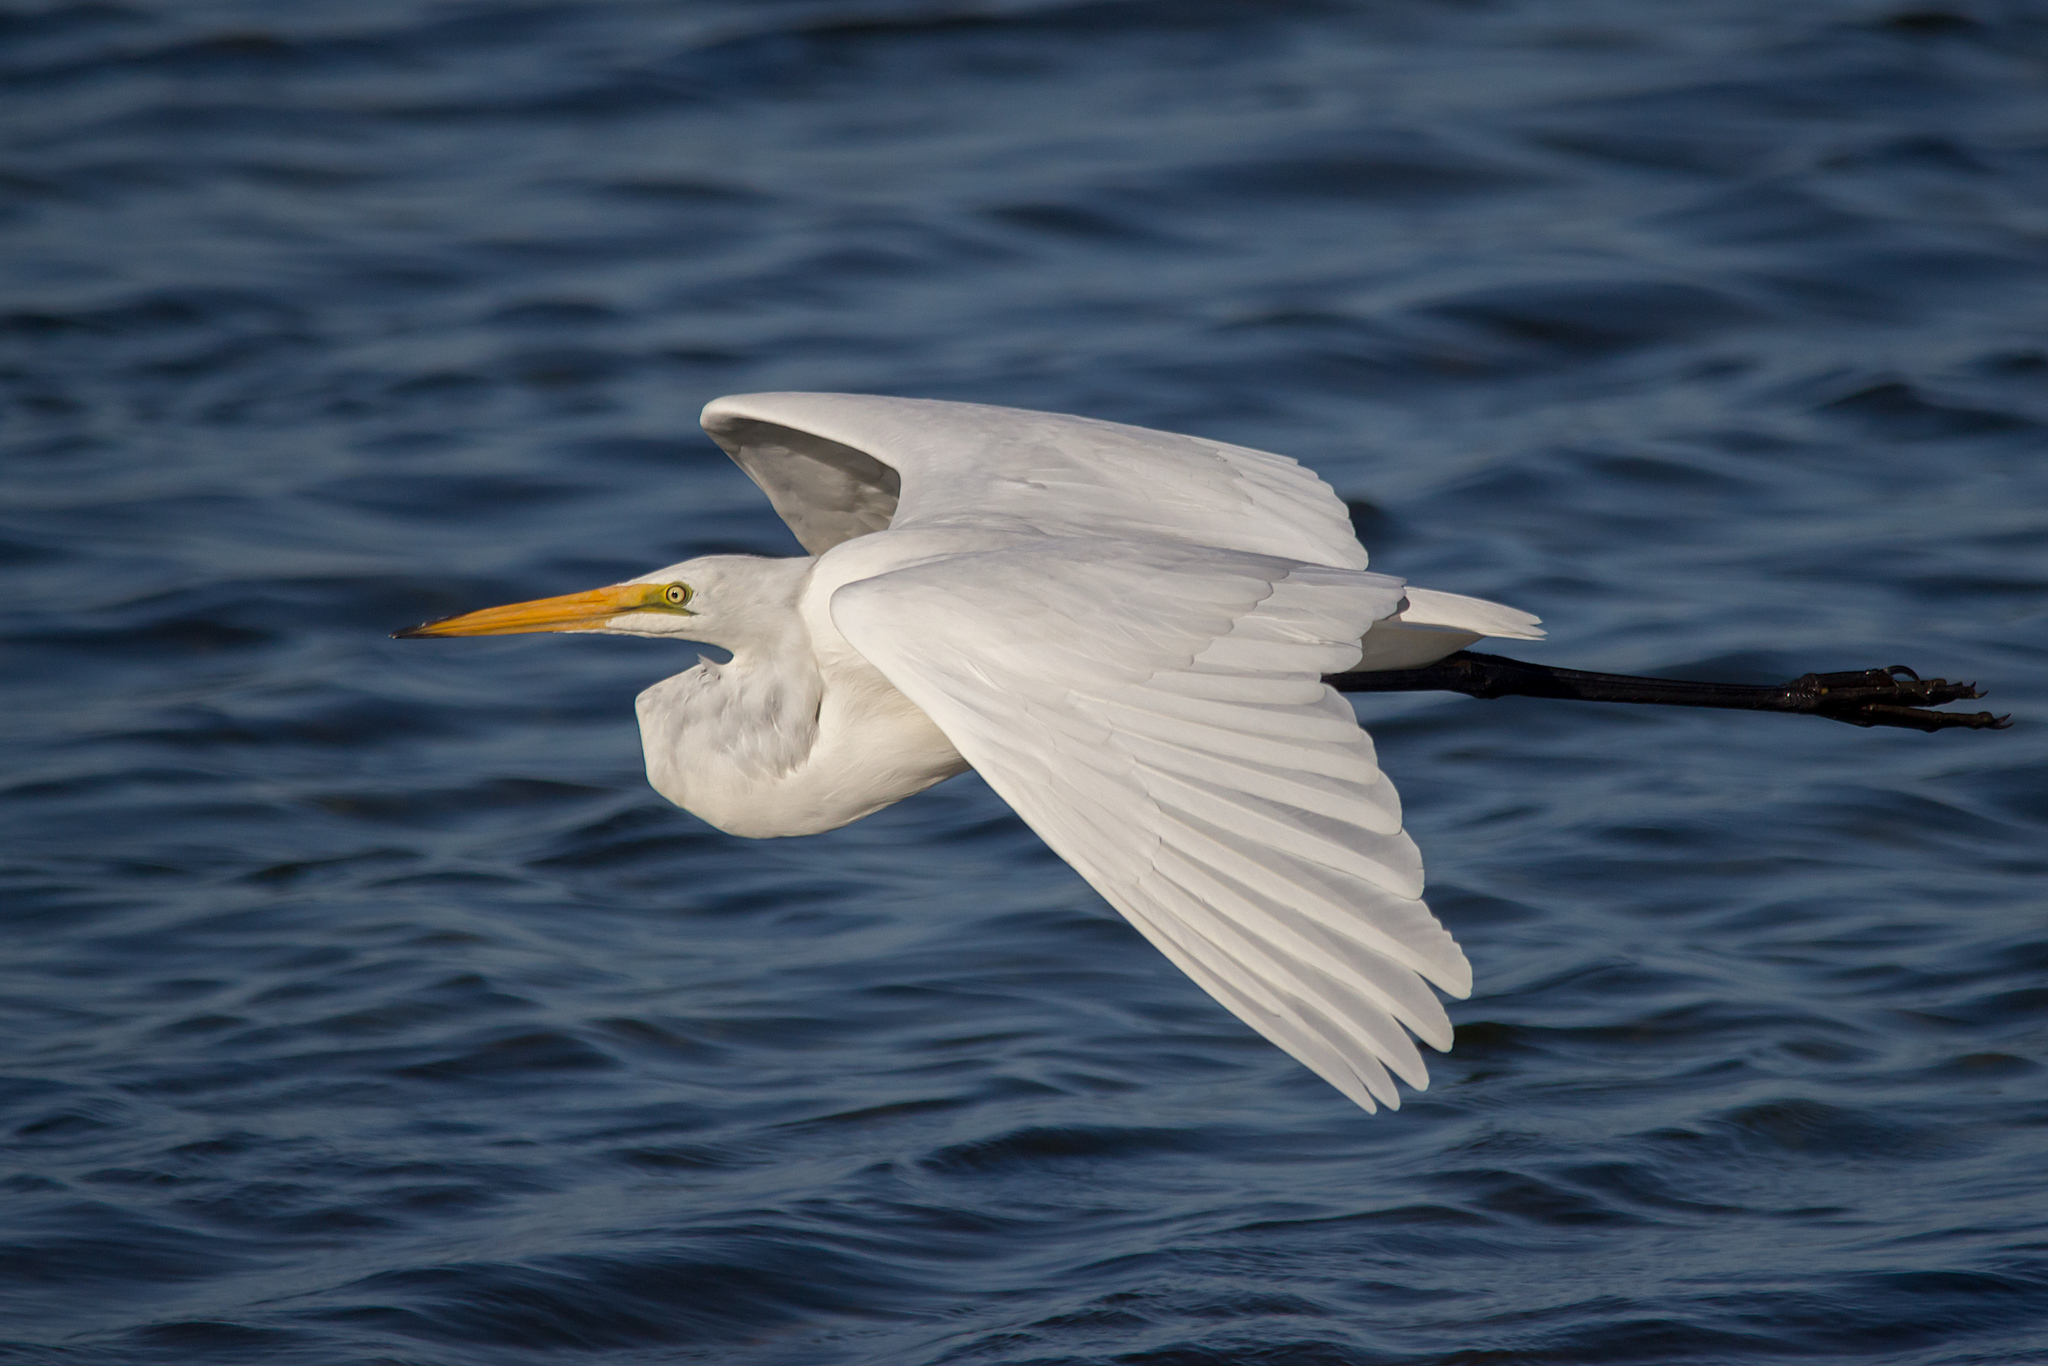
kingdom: Animalia
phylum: Chordata
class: Aves
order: Pelecaniformes
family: Ardeidae
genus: Ardea
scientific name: Ardea alba
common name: Great egret
